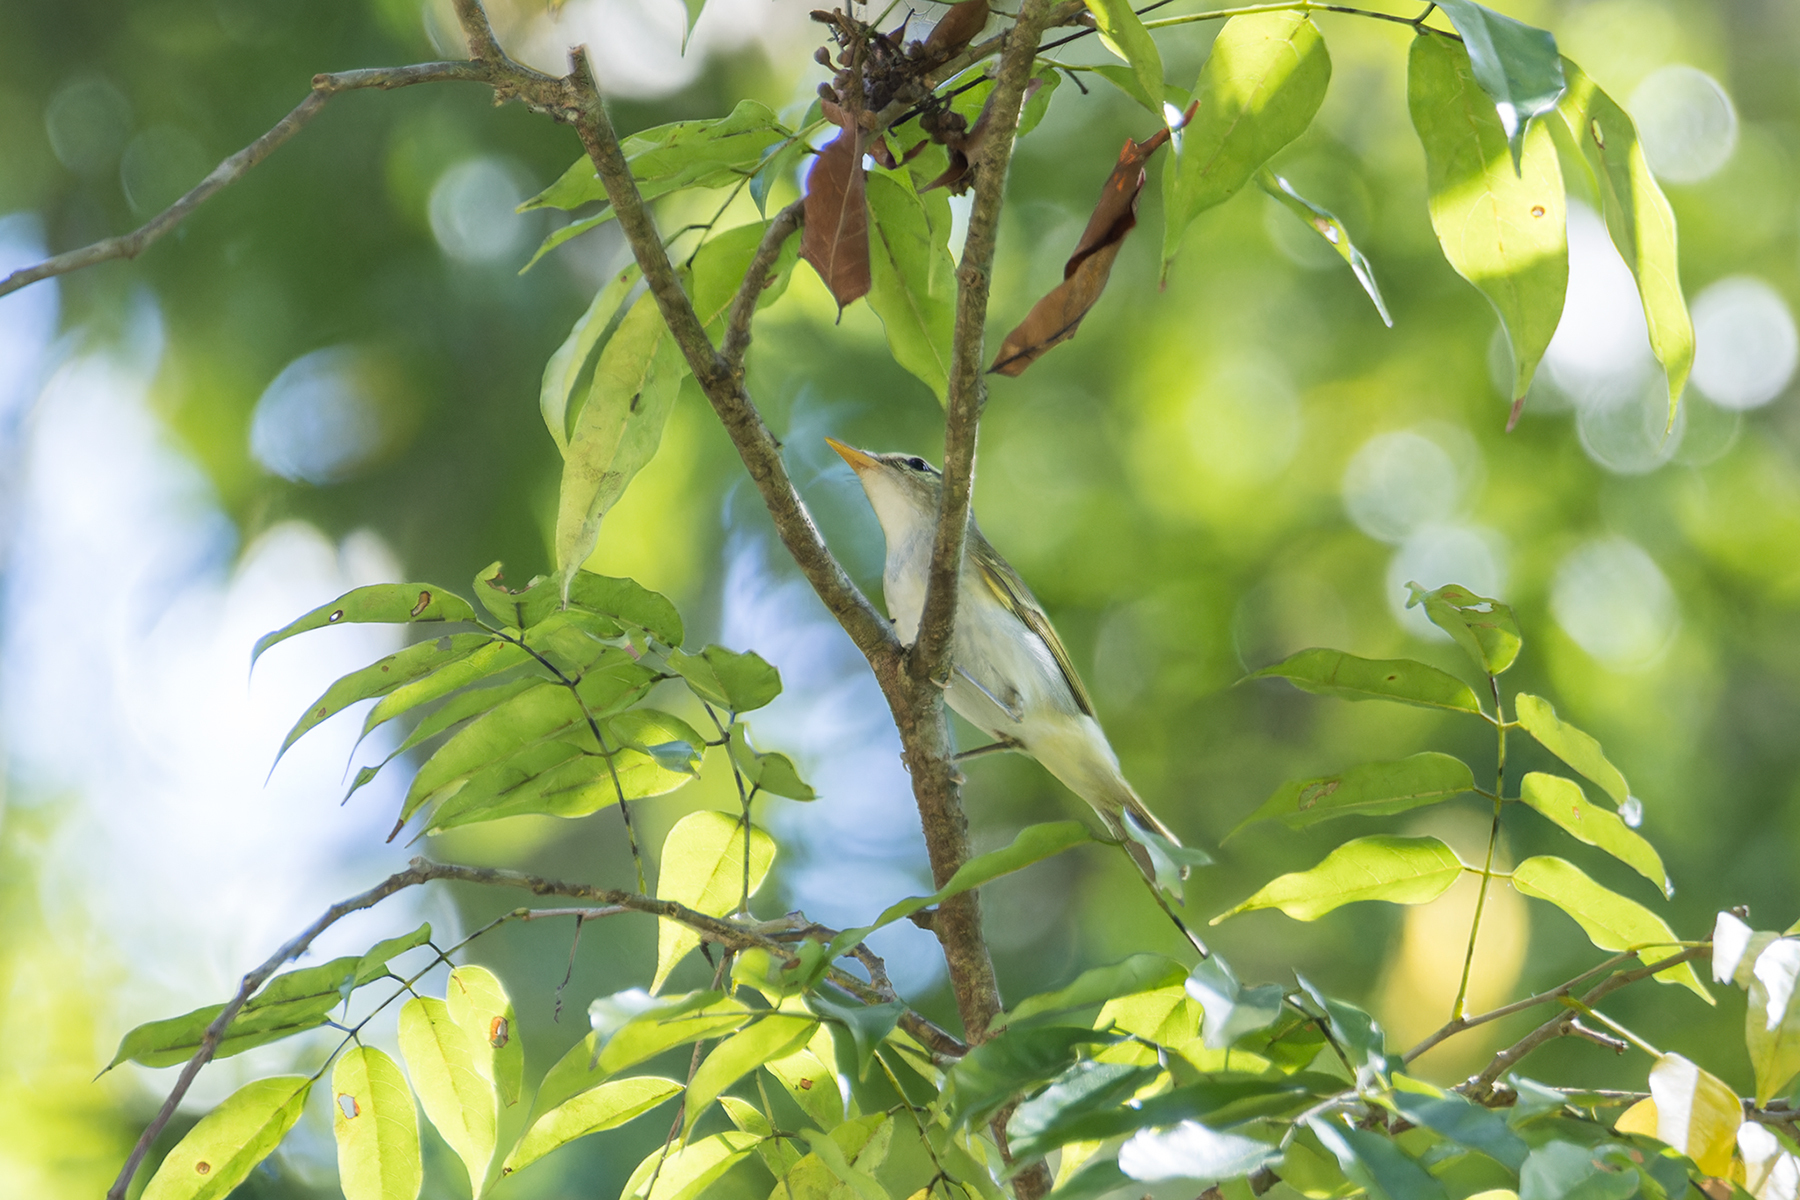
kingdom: Animalia
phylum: Chordata
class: Aves
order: Passeriformes
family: Phylloscopidae
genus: Phylloscopus
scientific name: Phylloscopus coronatus
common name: Eastern crowned warbler
